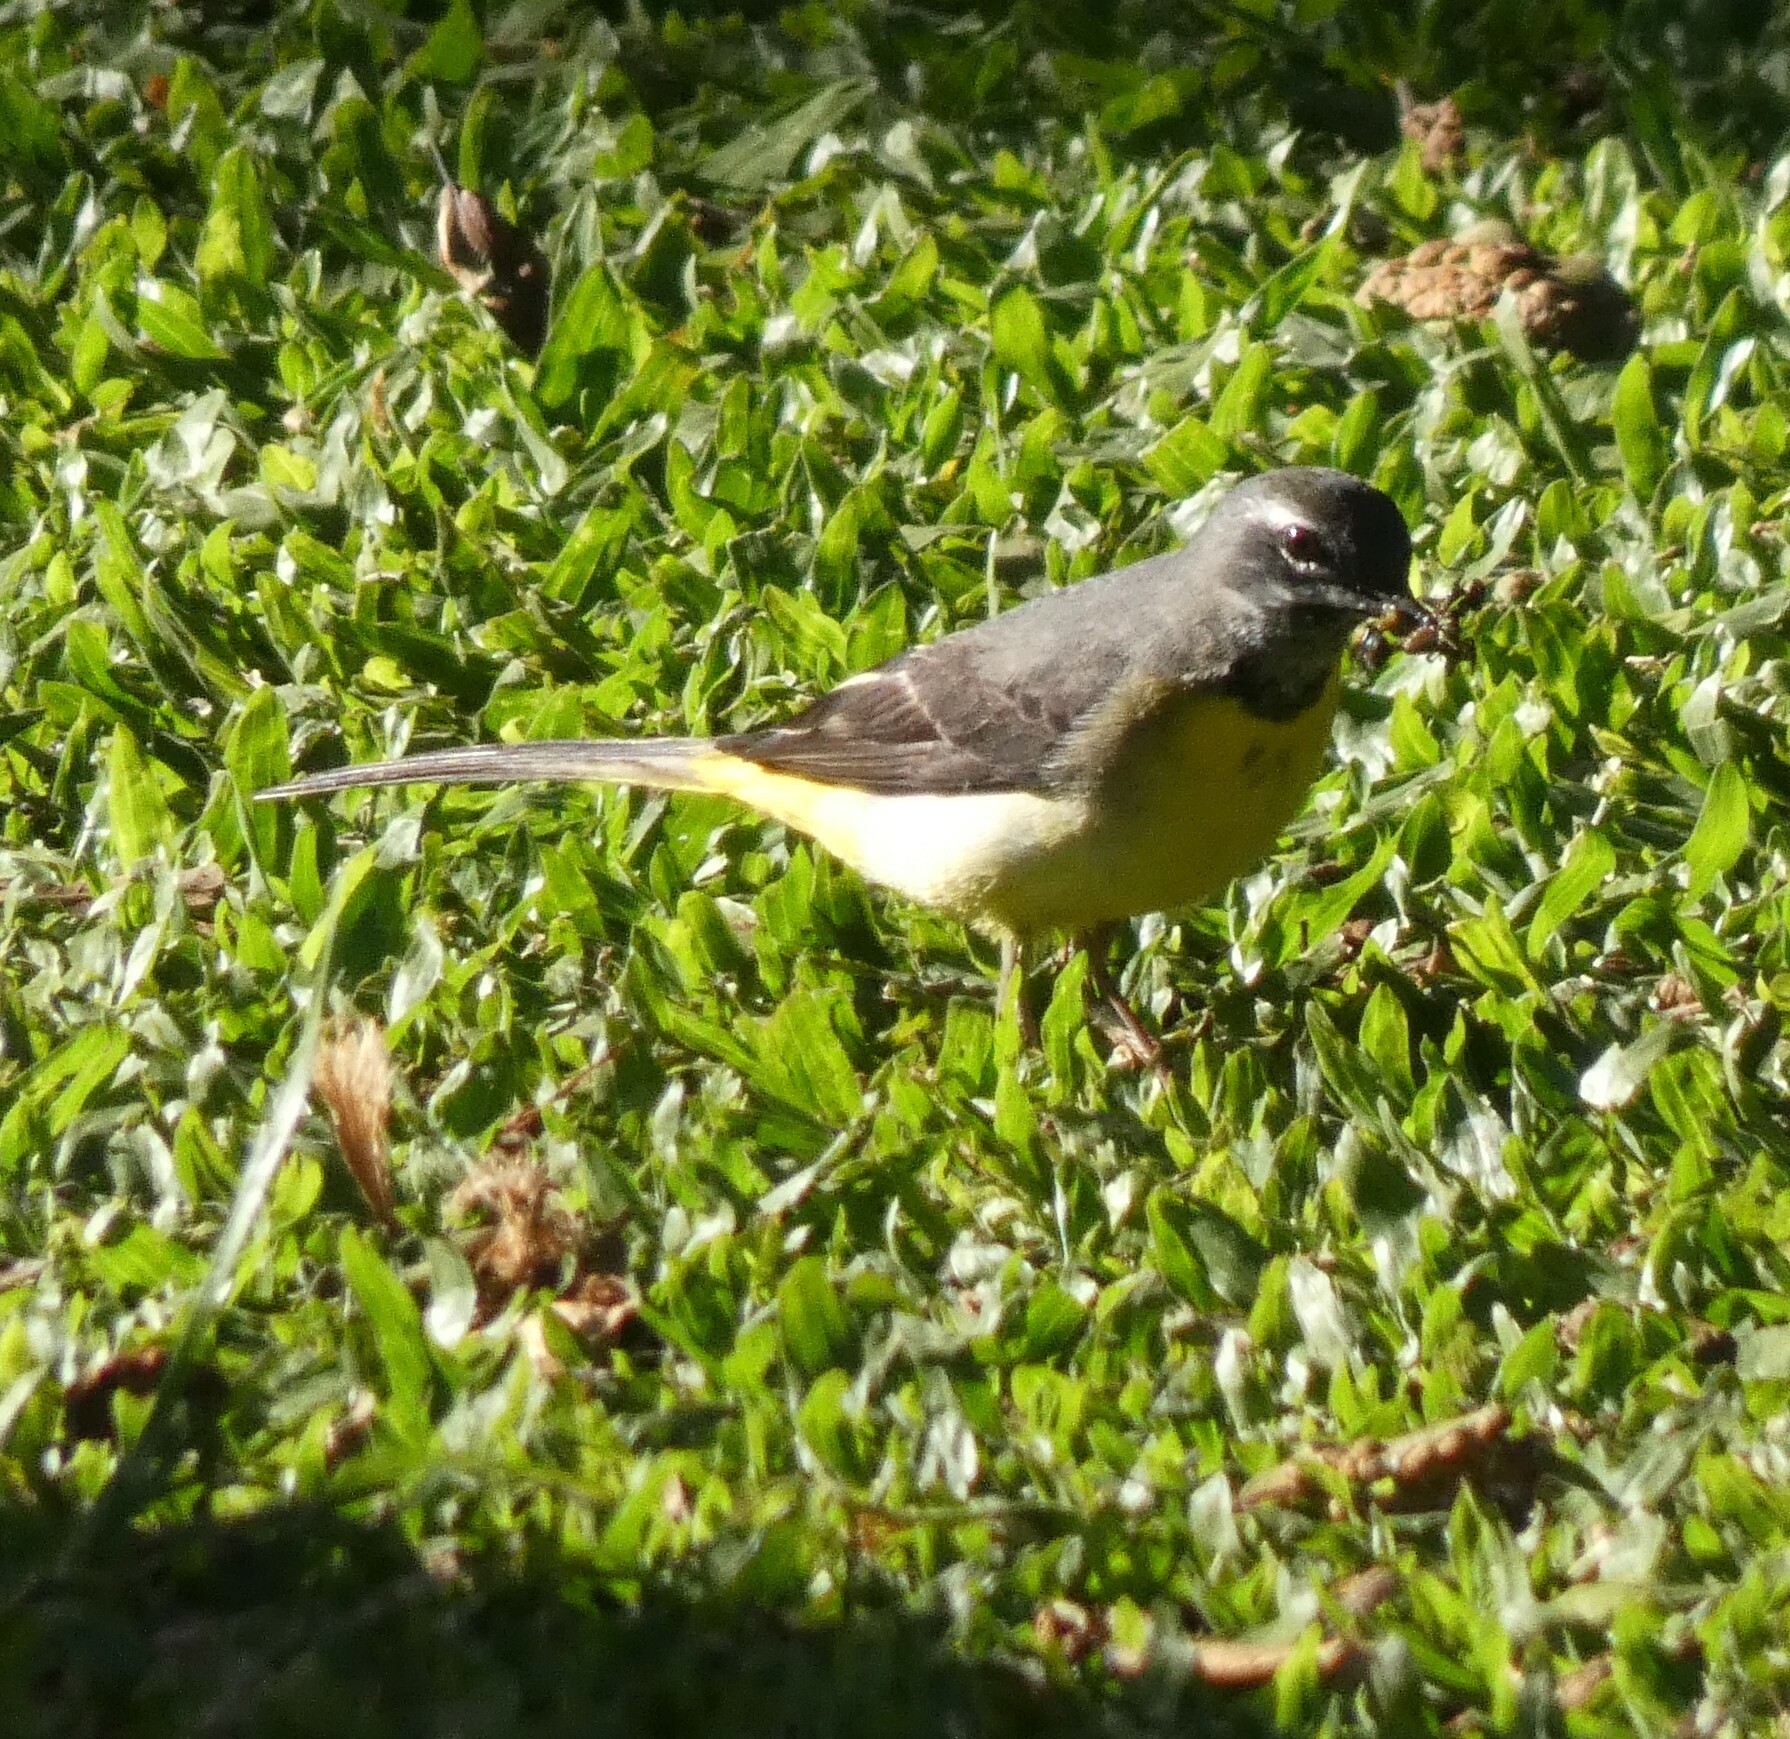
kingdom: Animalia
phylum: Chordata
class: Aves
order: Passeriformes
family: Motacillidae
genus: Motacilla
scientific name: Motacilla cinerea
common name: Grey wagtail
